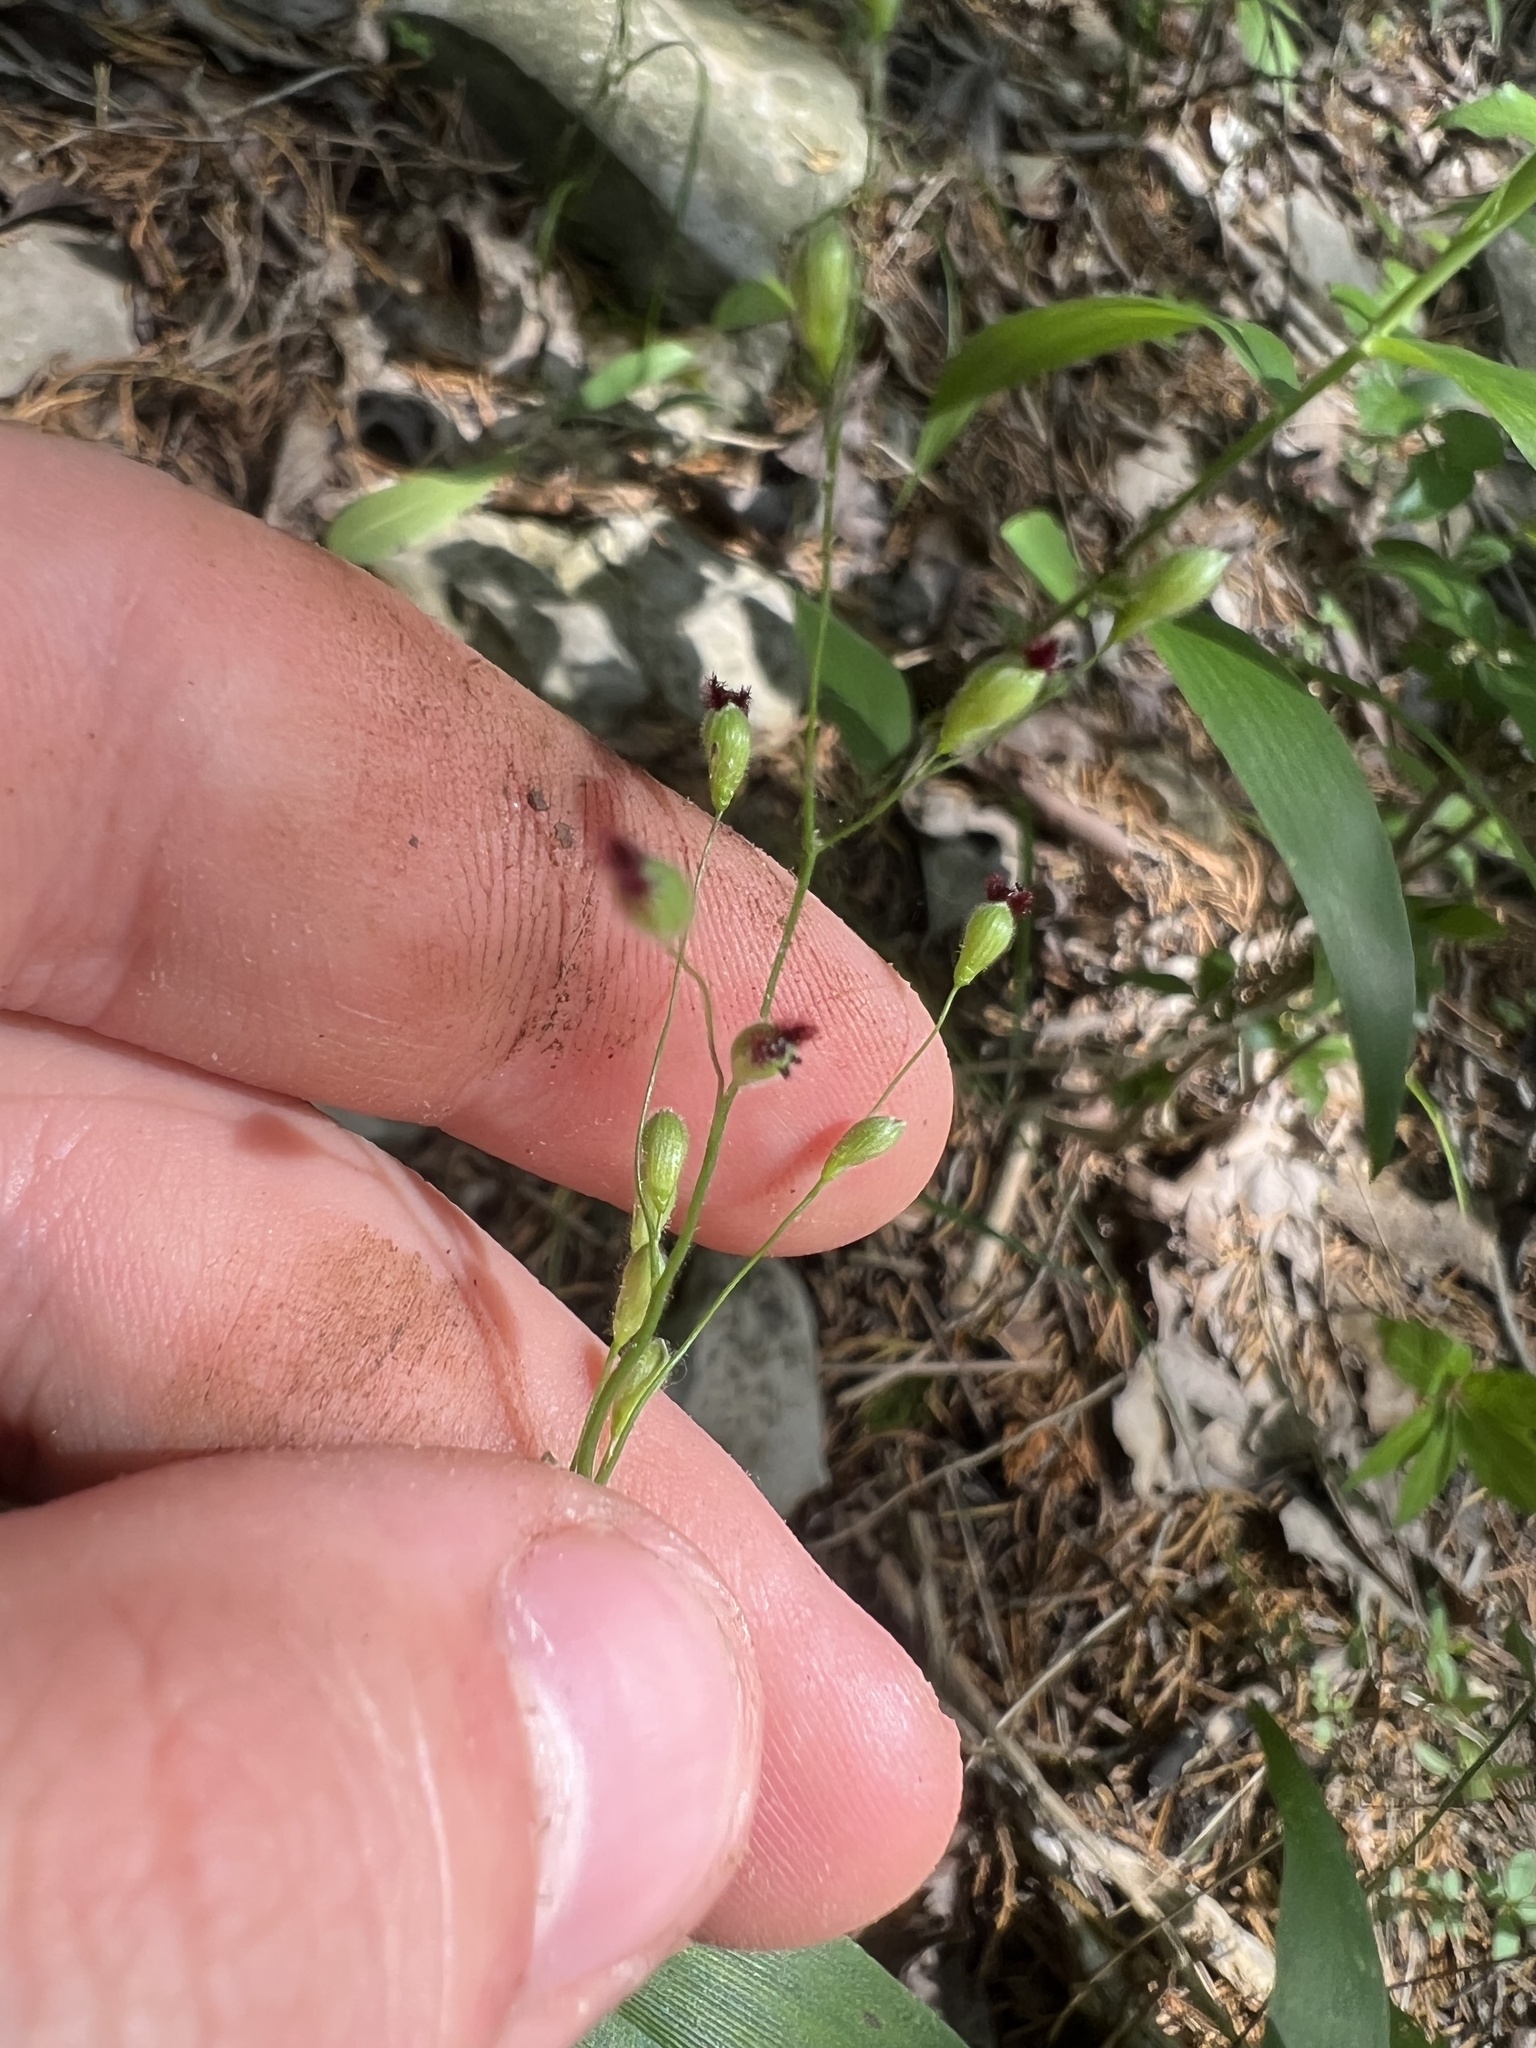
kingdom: Plantae
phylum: Tracheophyta
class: Liliopsida
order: Poales
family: Poaceae
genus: Dichanthelium
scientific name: Dichanthelium boscii
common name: Bosc's panic grass
